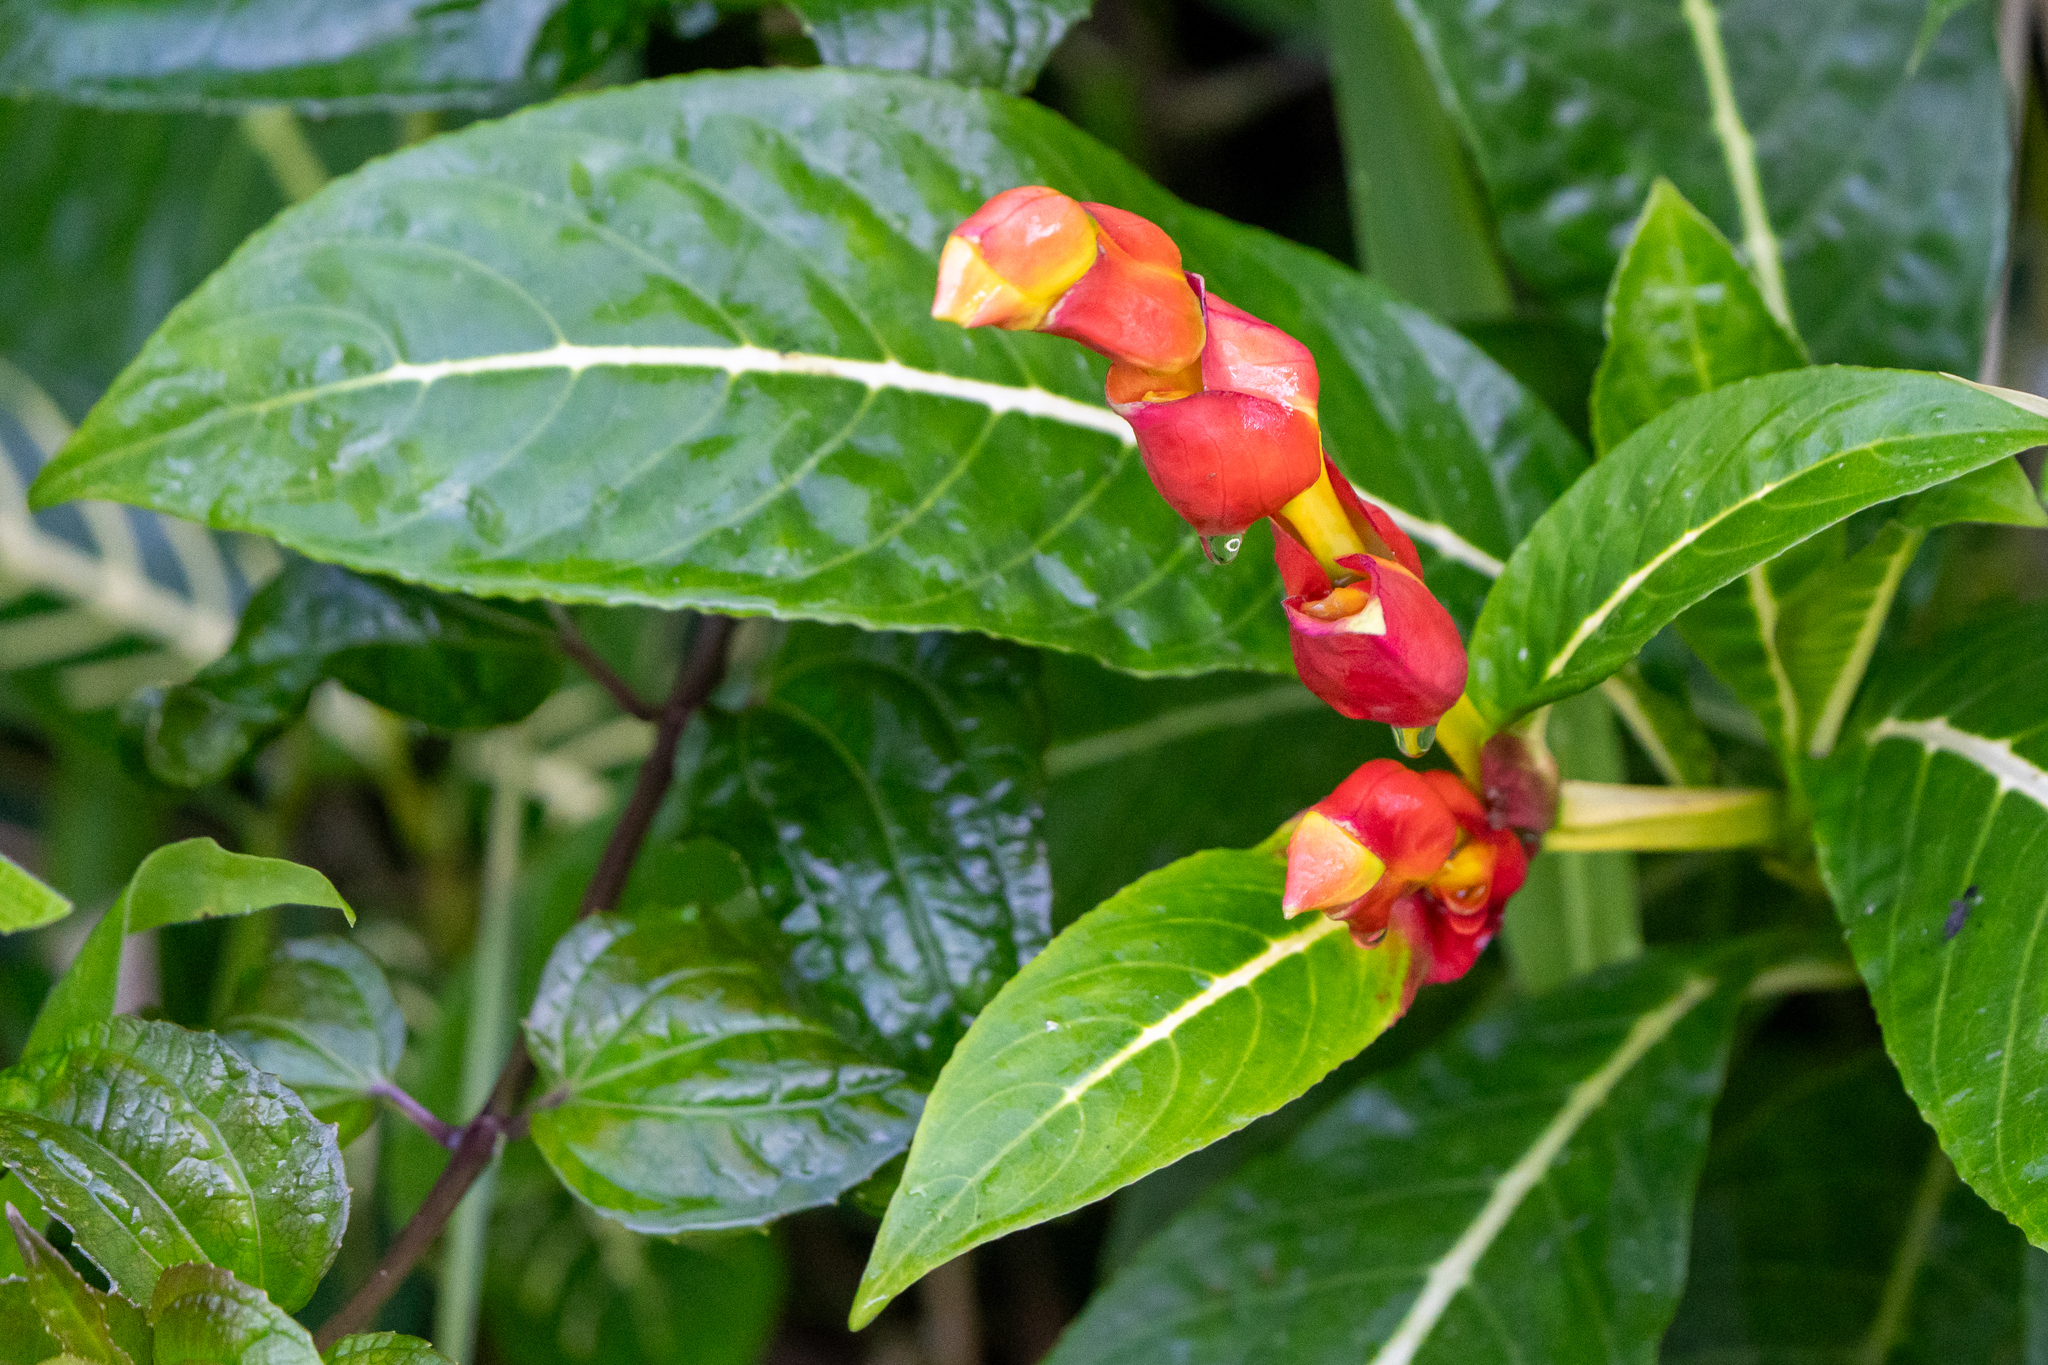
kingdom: Plantae
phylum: Tracheophyta
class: Magnoliopsida
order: Lamiales
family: Acanthaceae
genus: Sanchezia
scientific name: Sanchezia oblonga
